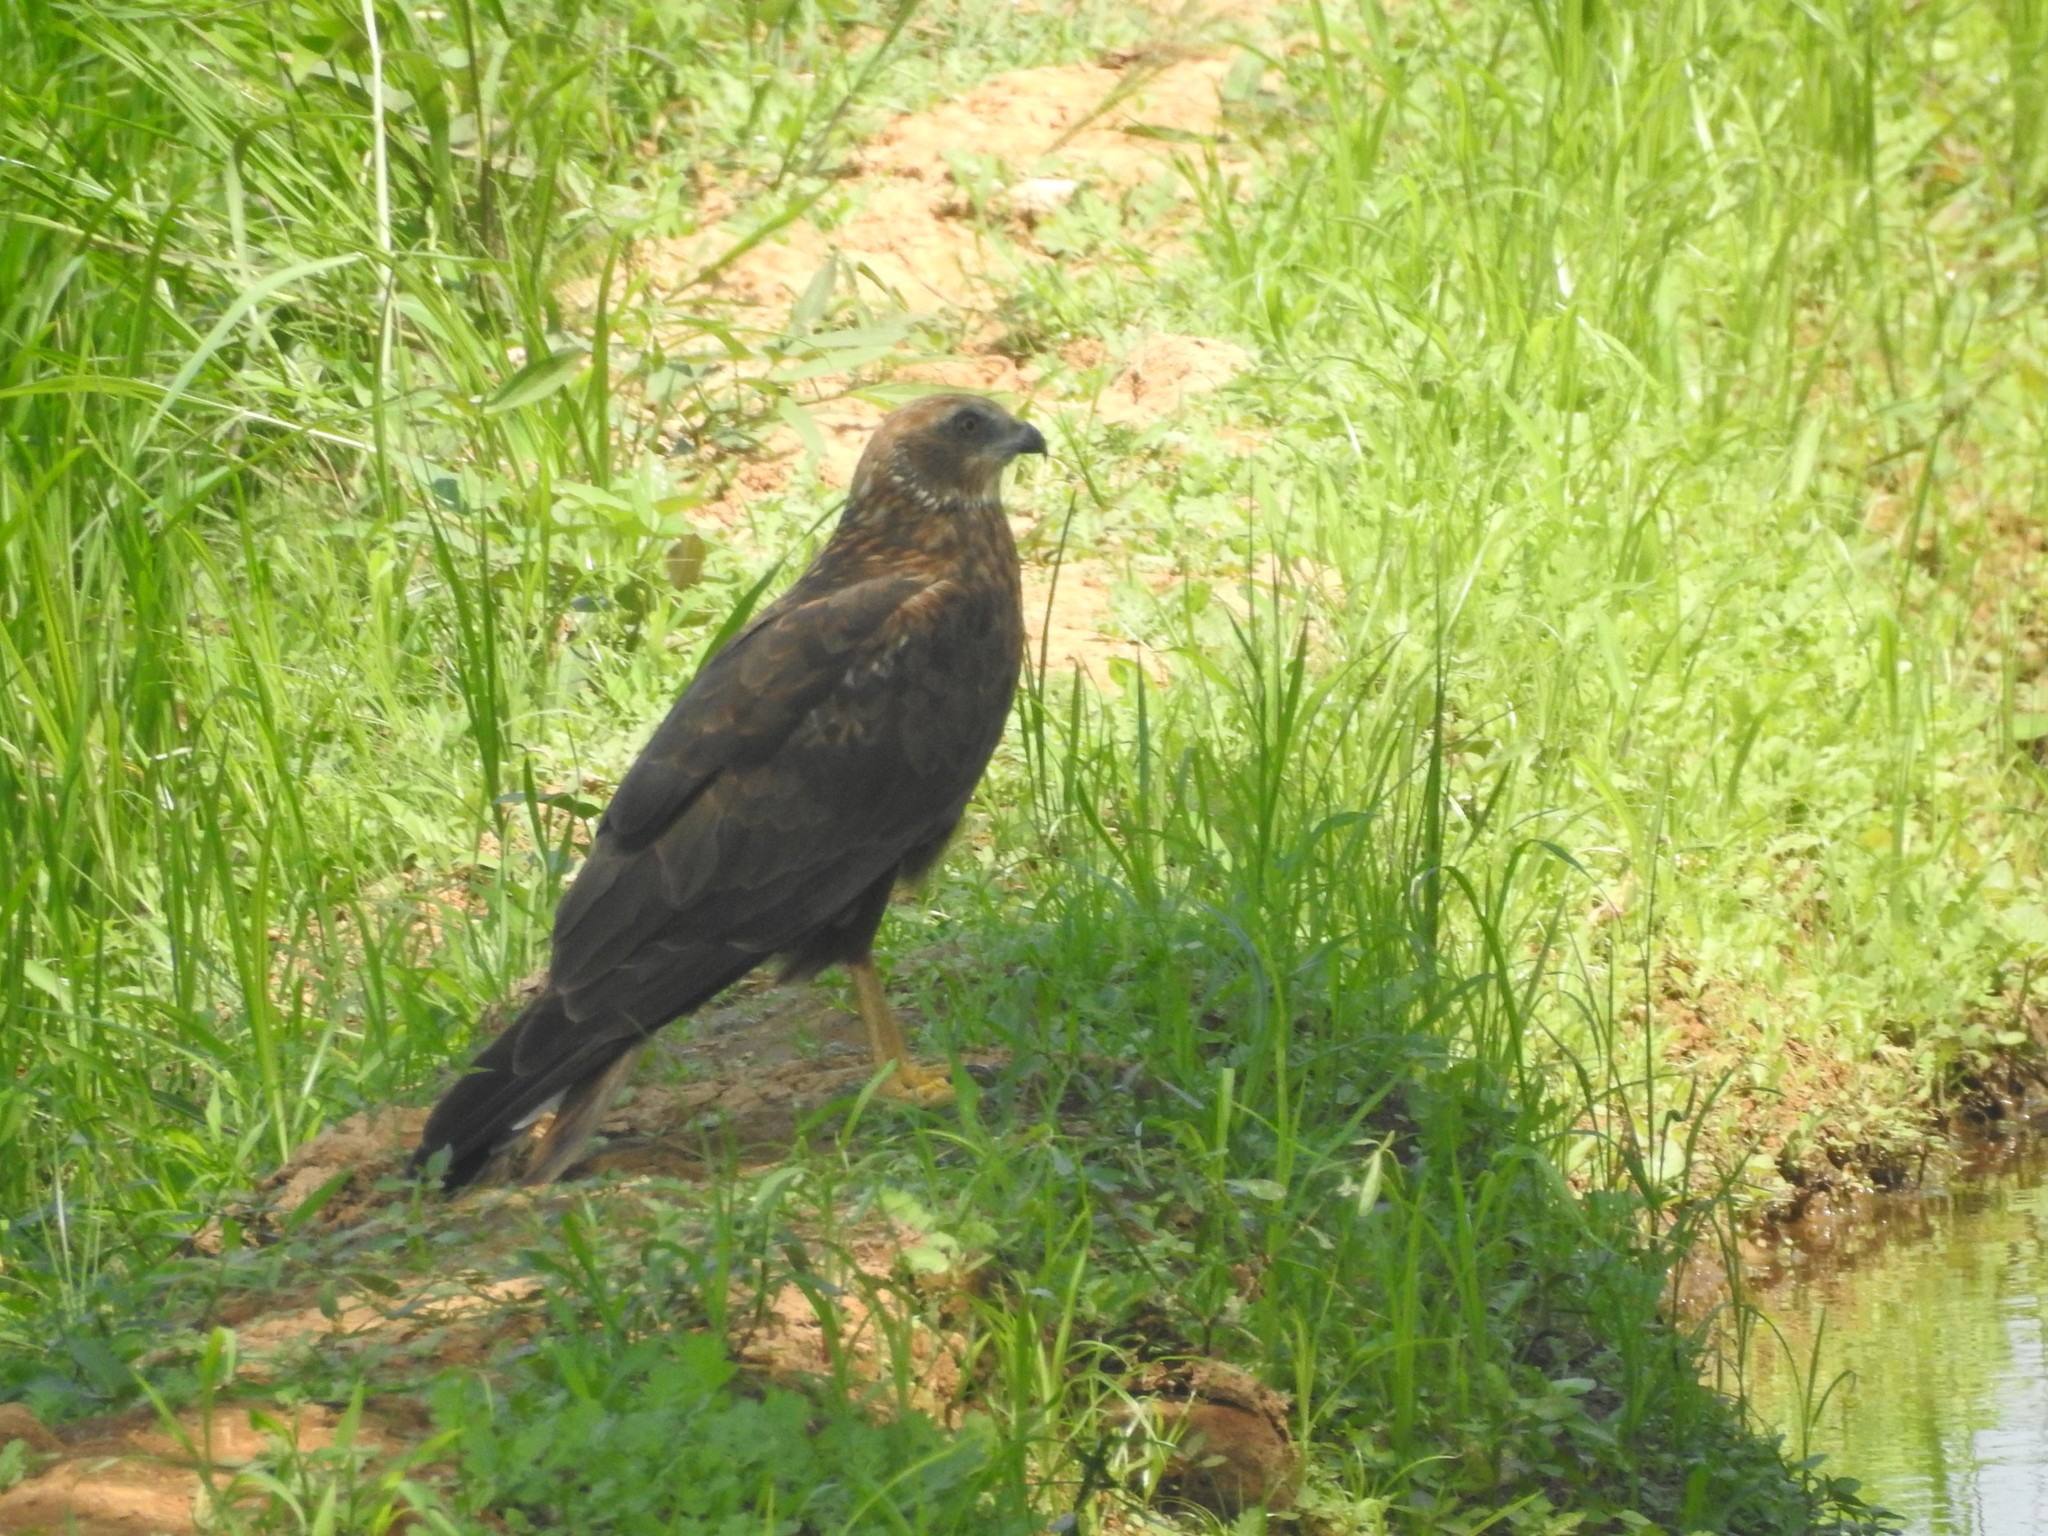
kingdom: Animalia
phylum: Chordata
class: Aves
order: Accipitriformes
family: Accipitridae
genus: Circus
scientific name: Circus aeruginosus
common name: Western marsh harrier
